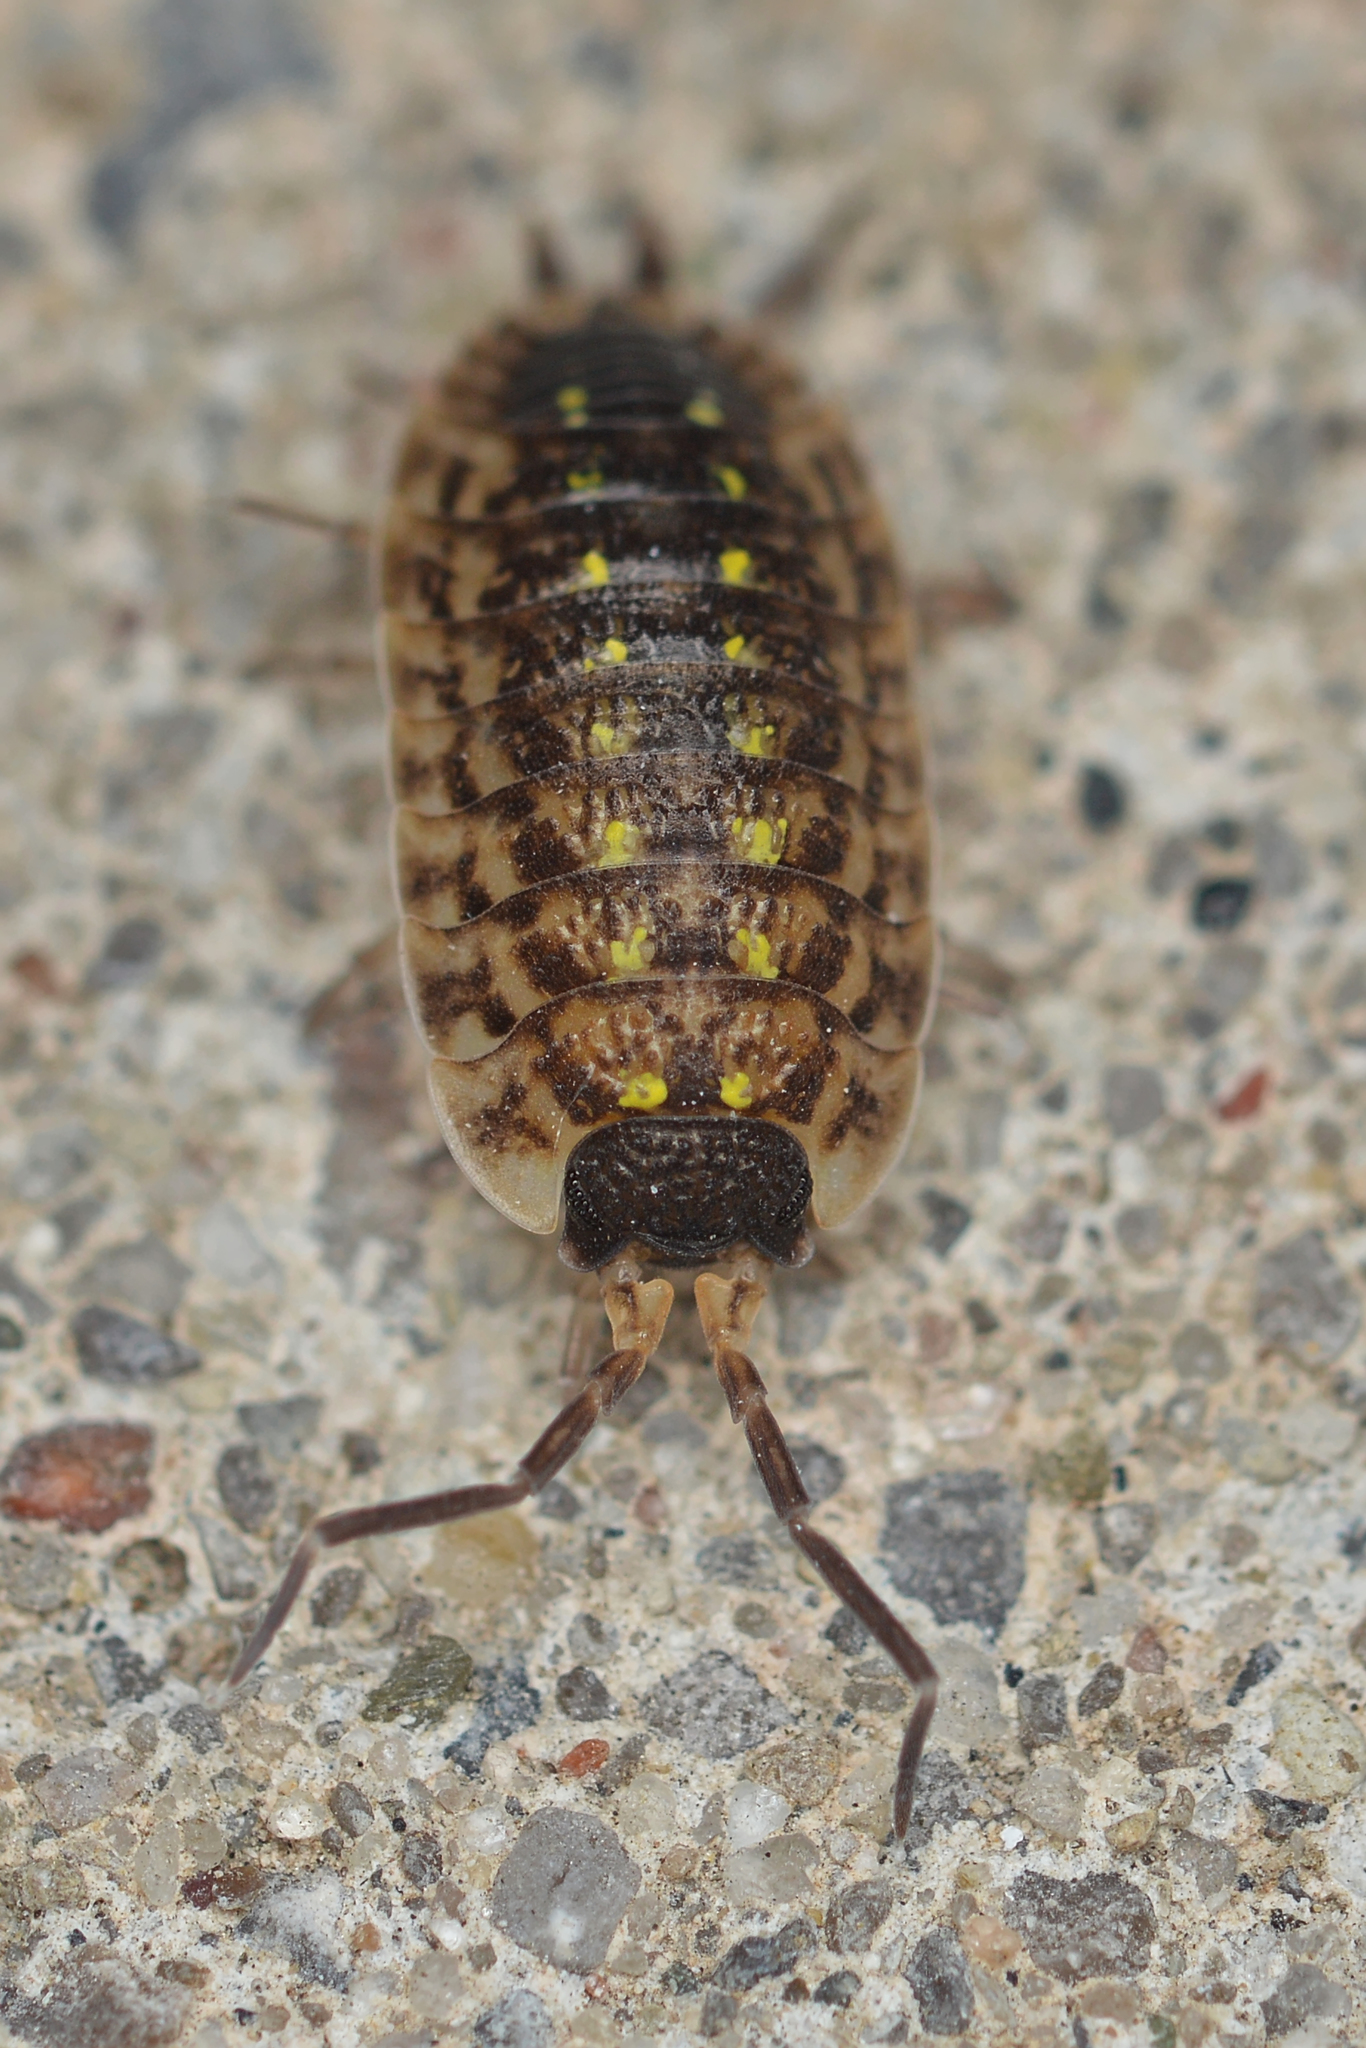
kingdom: Animalia
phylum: Arthropoda
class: Malacostraca
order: Isopoda
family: Porcellionidae
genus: Porcellio
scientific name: Porcellio spinicornis
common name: Painted woodlouse
